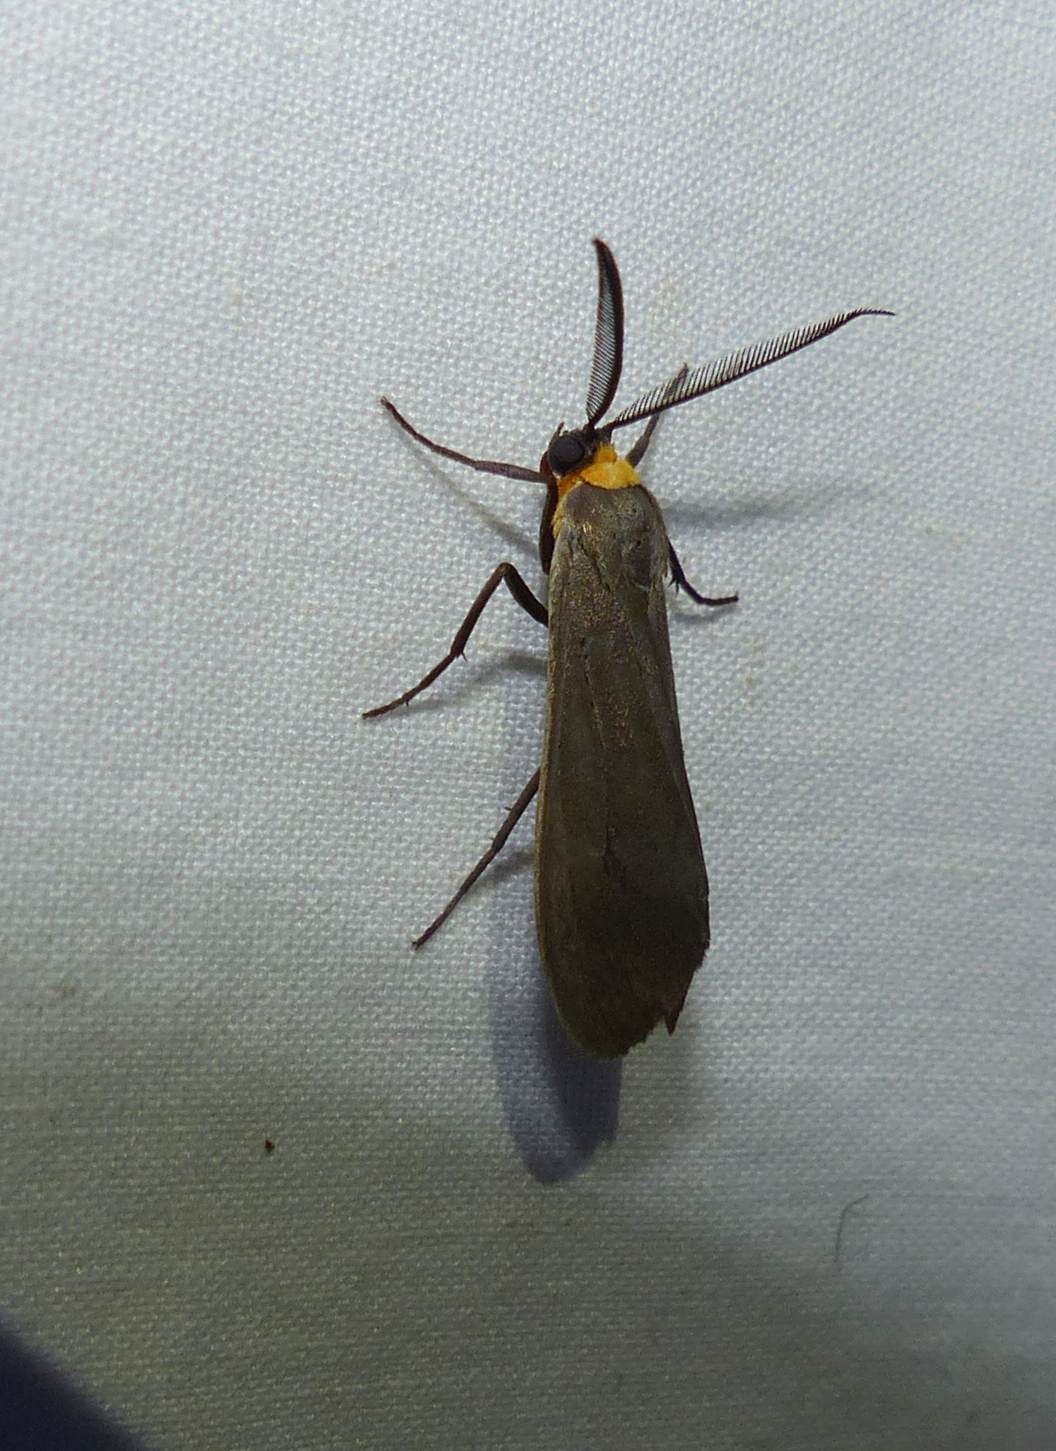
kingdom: Animalia
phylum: Arthropoda
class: Insecta
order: Lepidoptera
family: Erebidae
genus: Cisseps
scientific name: Cisseps fulvicollis
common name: Yellow-collared scape moth
